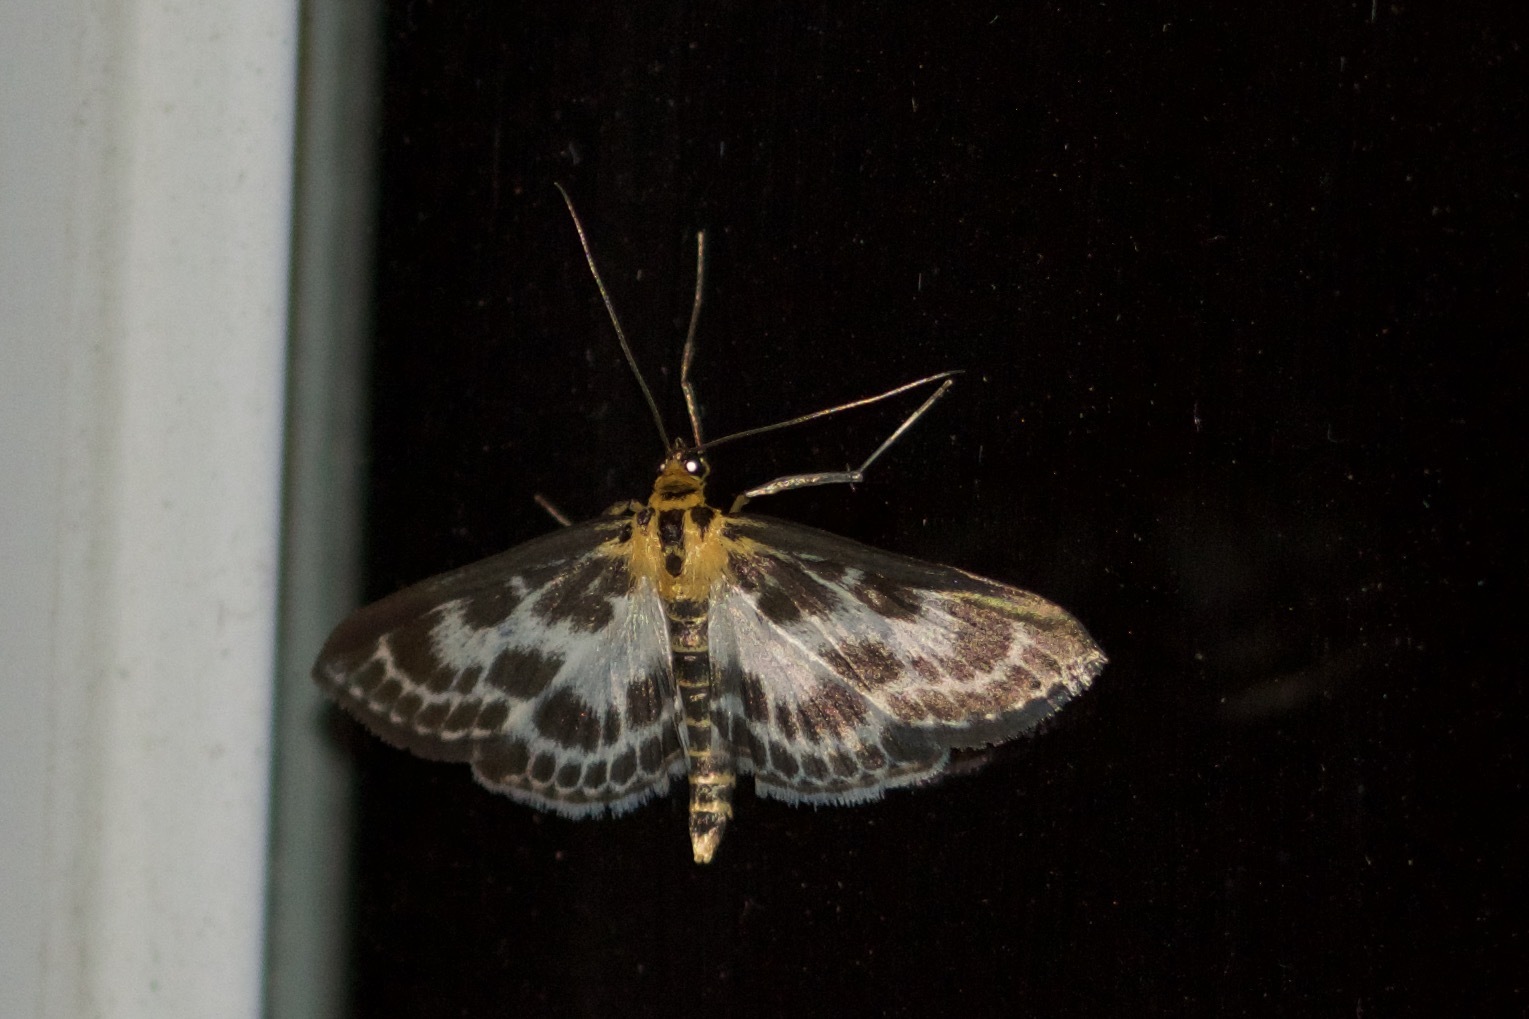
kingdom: Animalia
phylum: Arthropoda
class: Insecta
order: Lepidoptera
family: Crambidae
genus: Anania
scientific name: Anania hortulata
